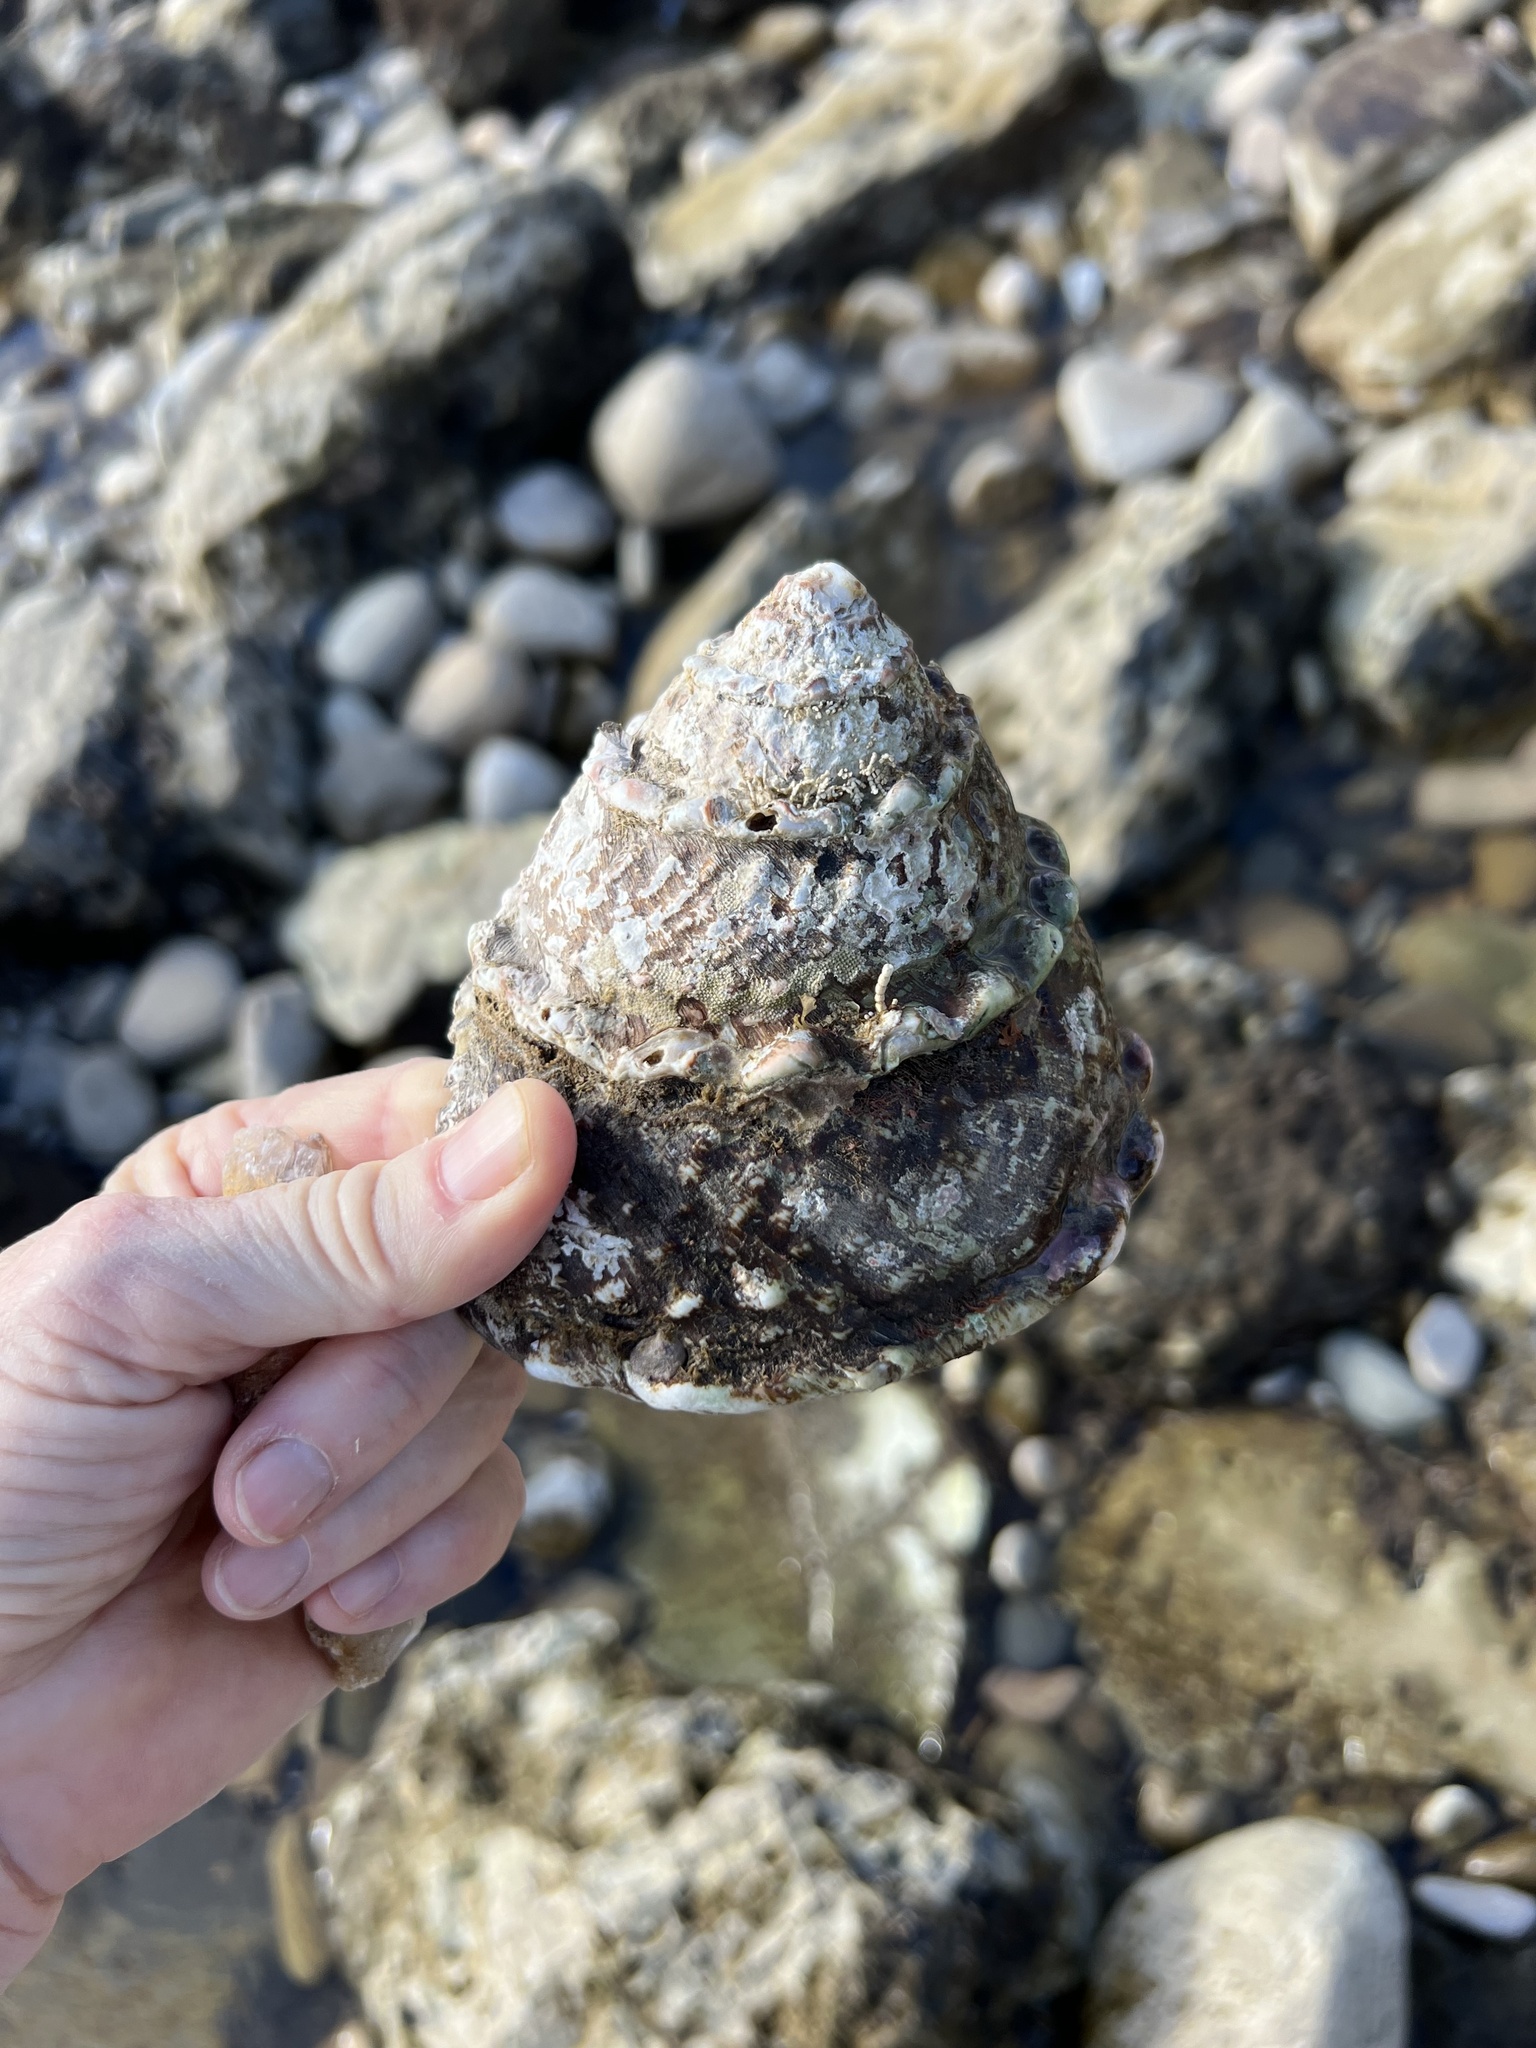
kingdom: Animalia
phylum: Mollusca
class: Gastropoda
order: Trochida
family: Turbinidae
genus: Megastraea
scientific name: Megastraea undosa
